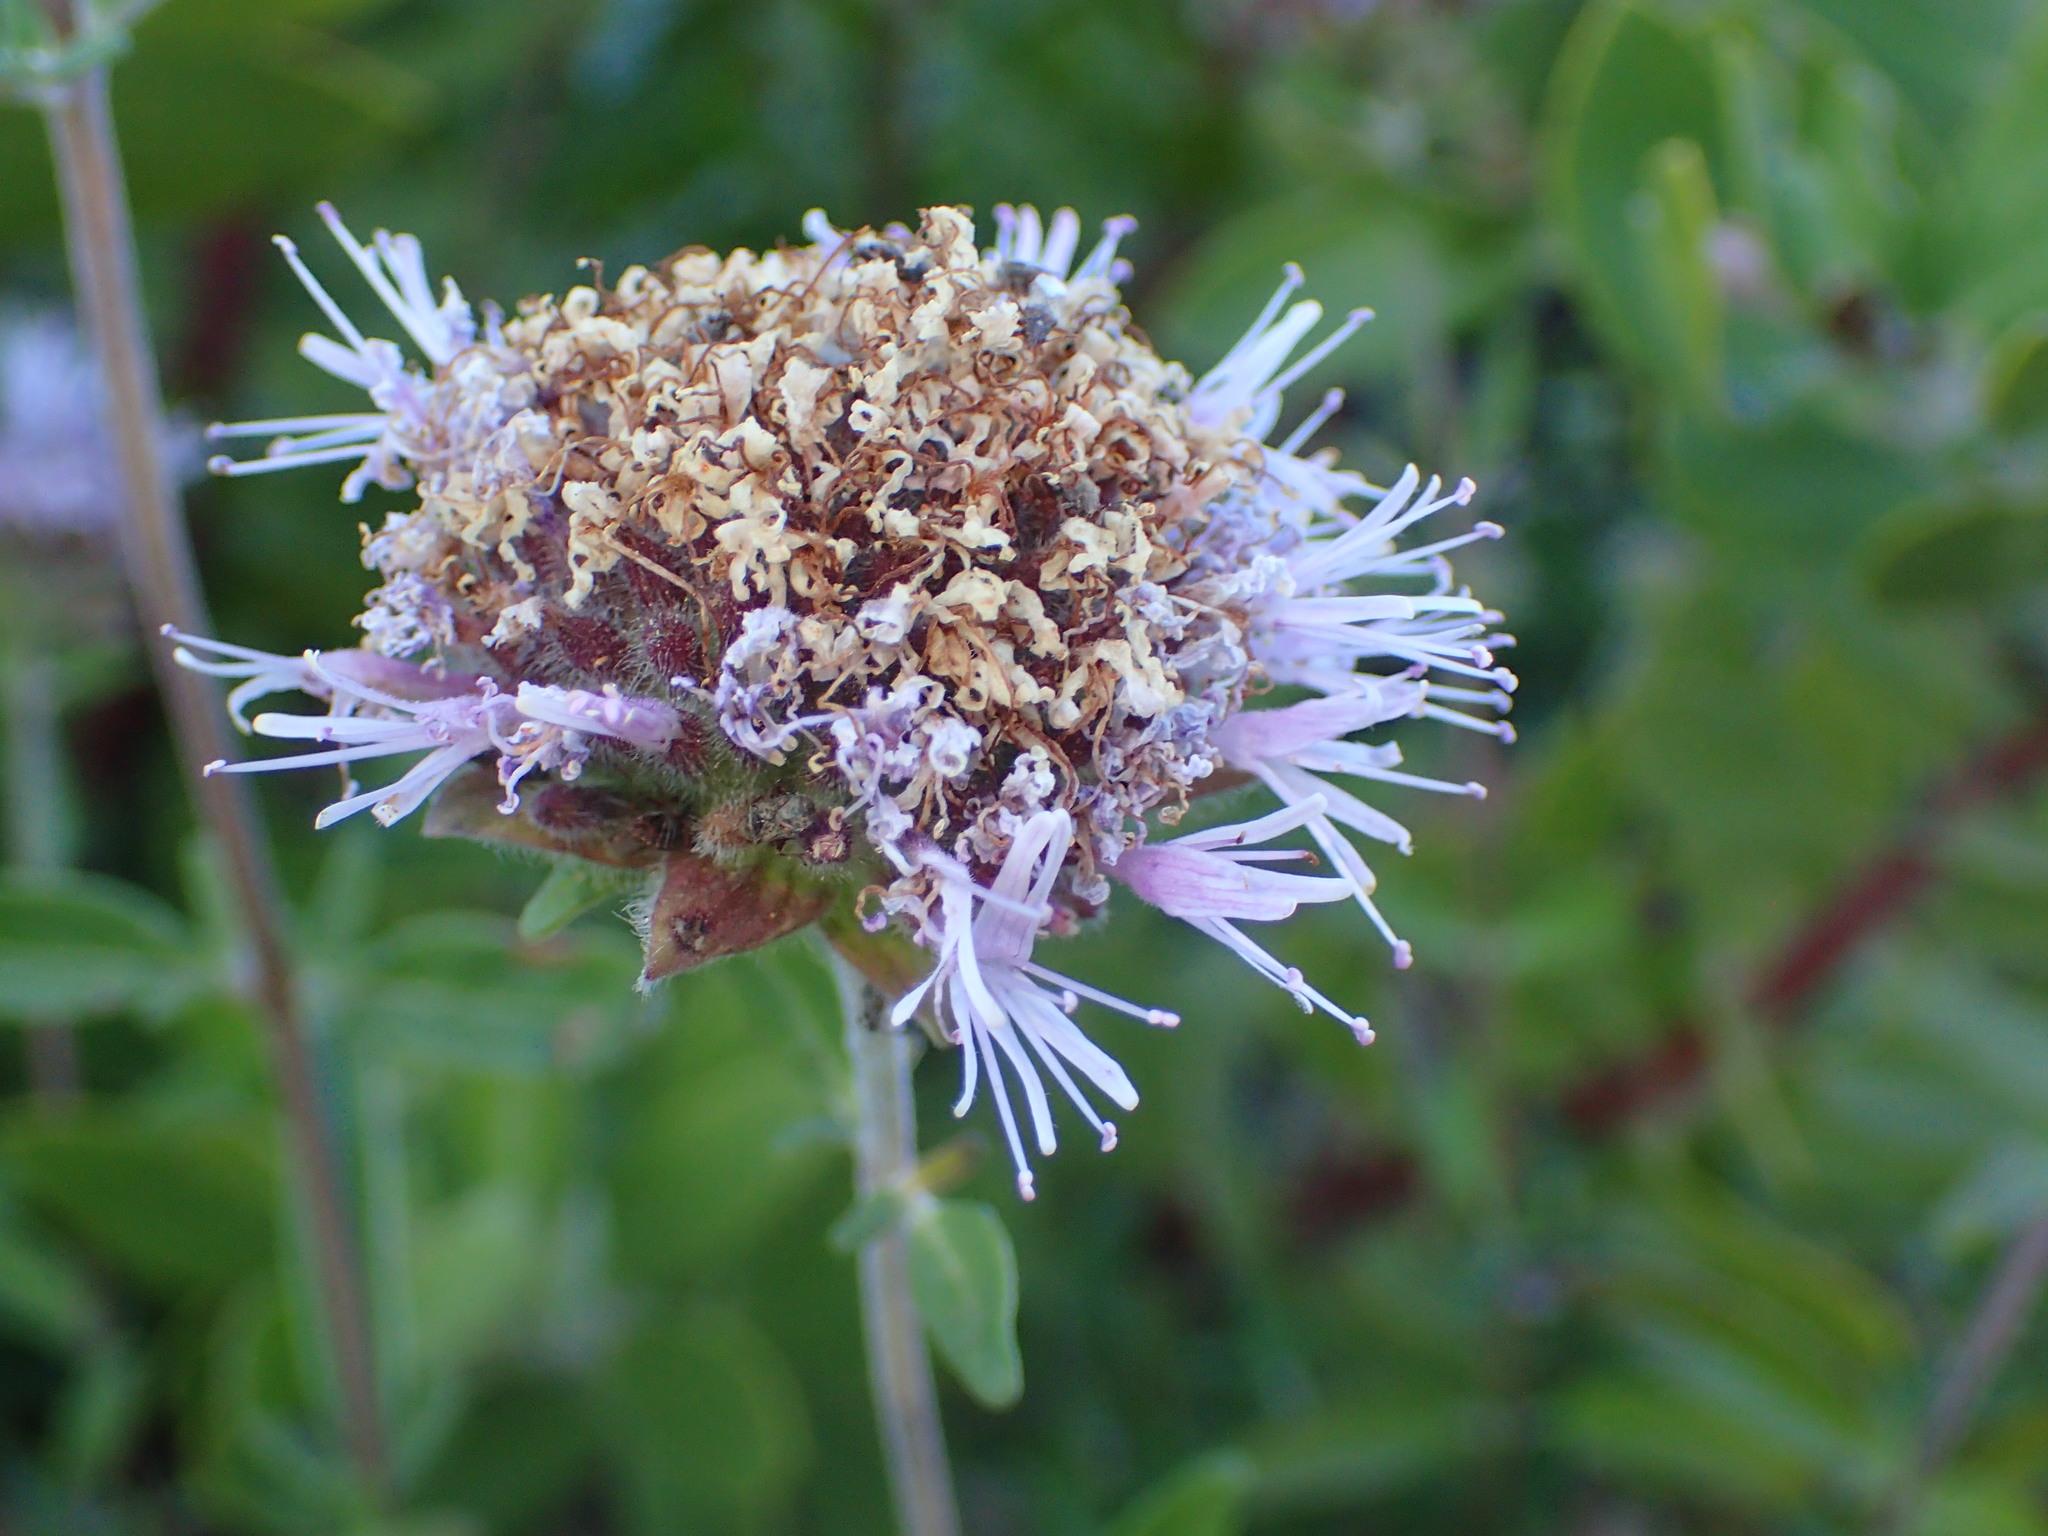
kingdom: Plantae
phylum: Tracheophyta
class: Magnoliopsida
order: Lamiales
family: Lamiaceae
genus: Monardella
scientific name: Monardella hypoleuca
